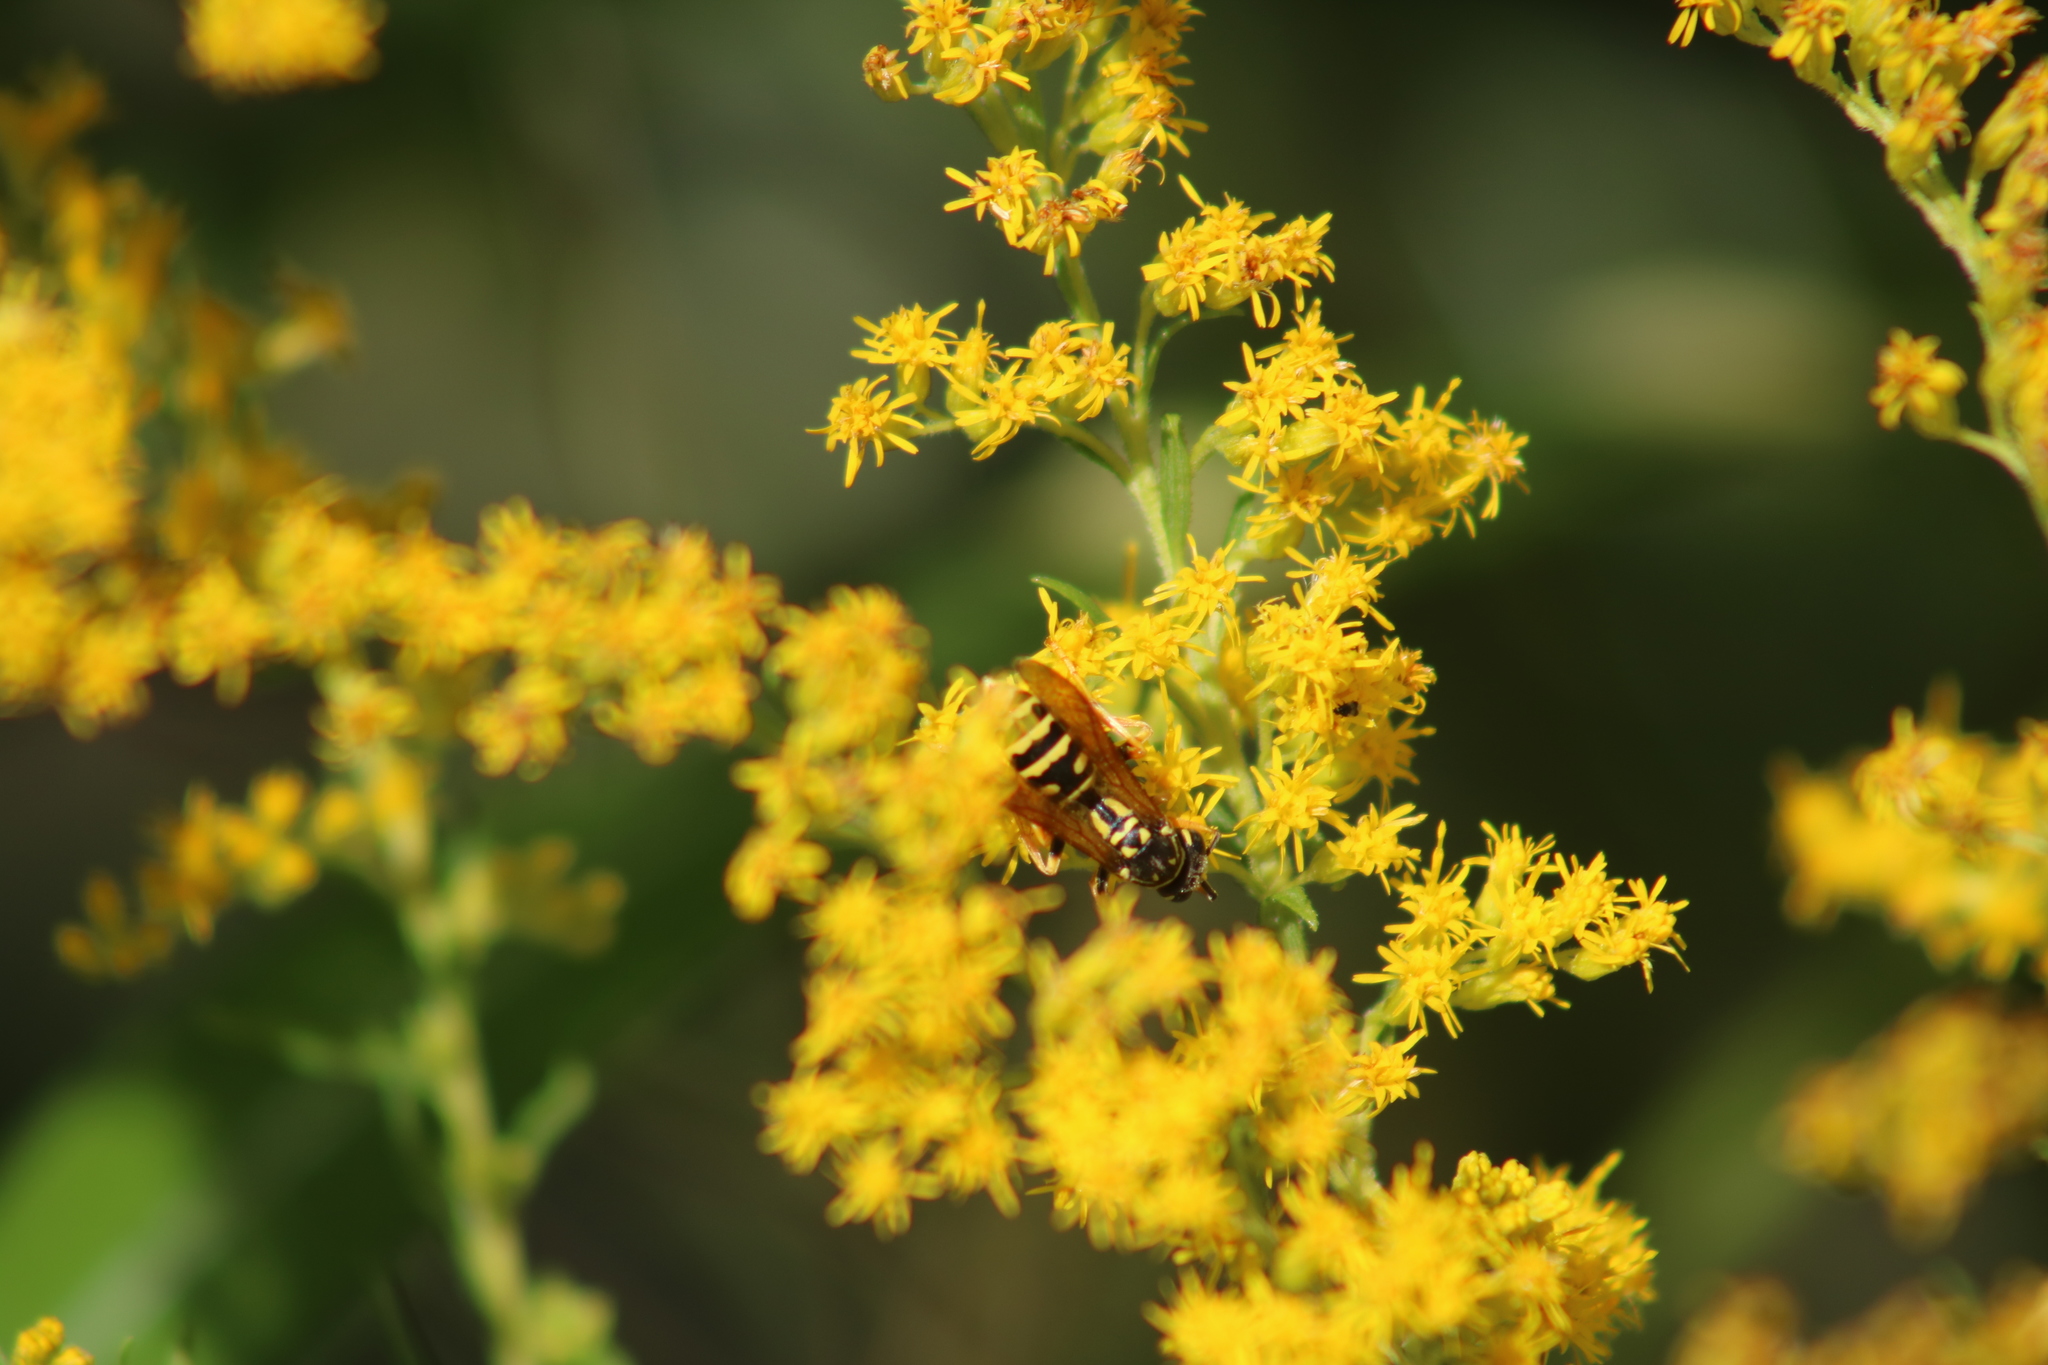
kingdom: Animalia
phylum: Arthropoda
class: Insecta
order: Hymenoptera
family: Eumenidae
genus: Polistes
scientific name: Polistes dominula
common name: Paper wasp
